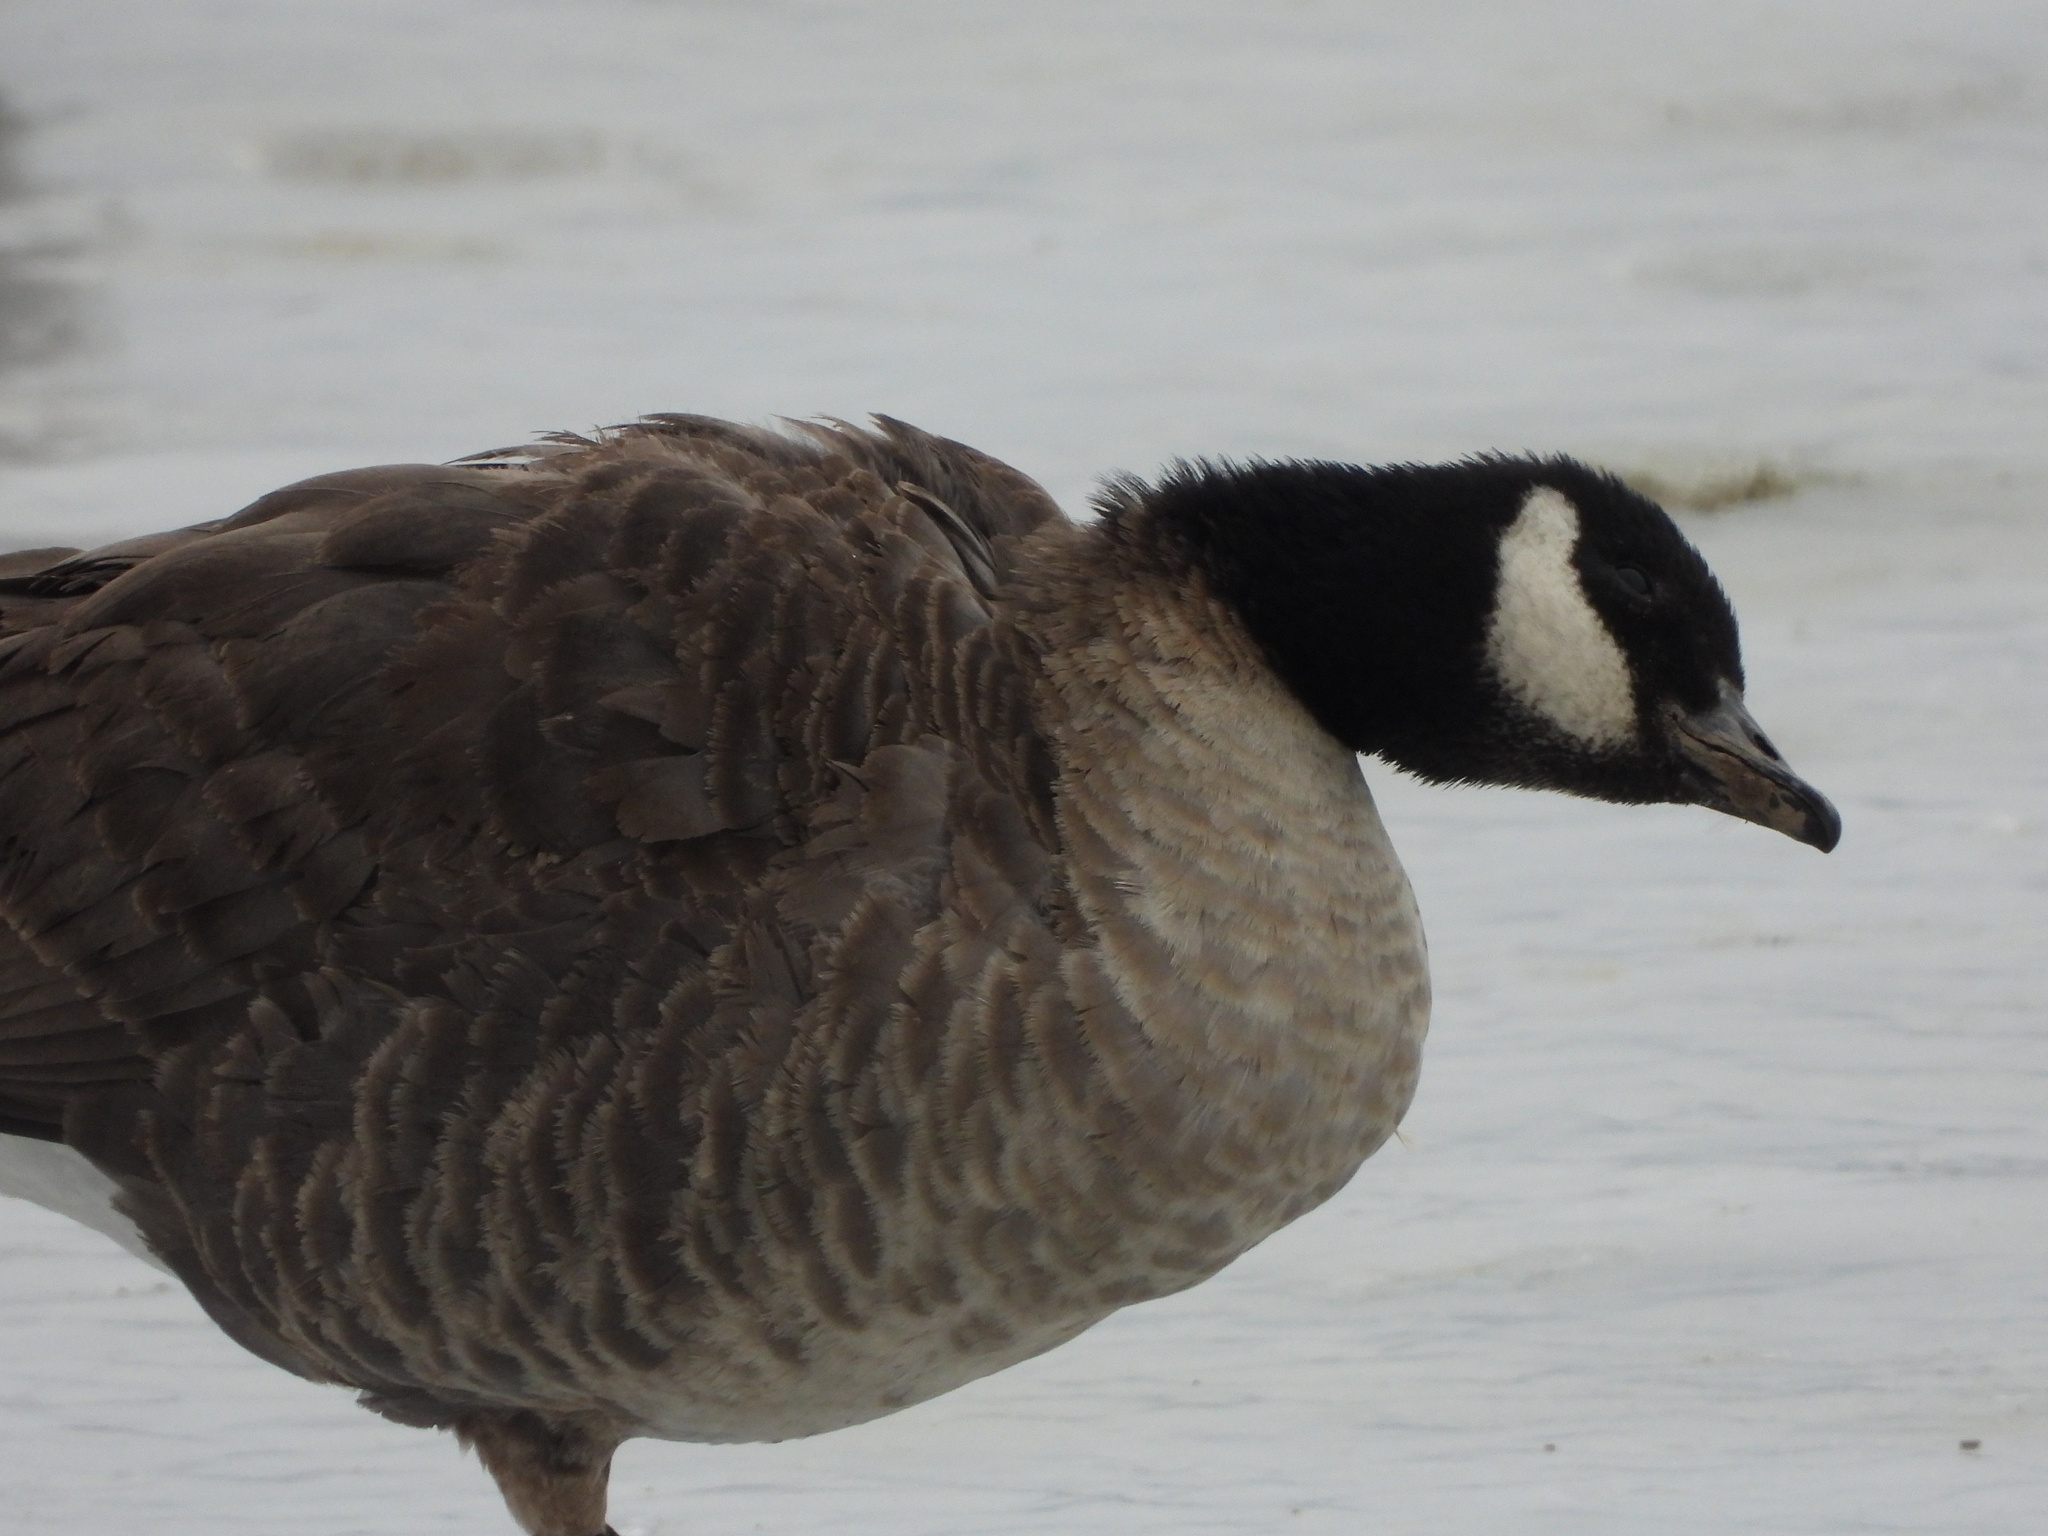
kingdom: Animalia
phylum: Chordata
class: Aves
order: Anseriformes
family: Anatidae
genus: Branta
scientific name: Branta hutchinsii
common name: Cackling goose
